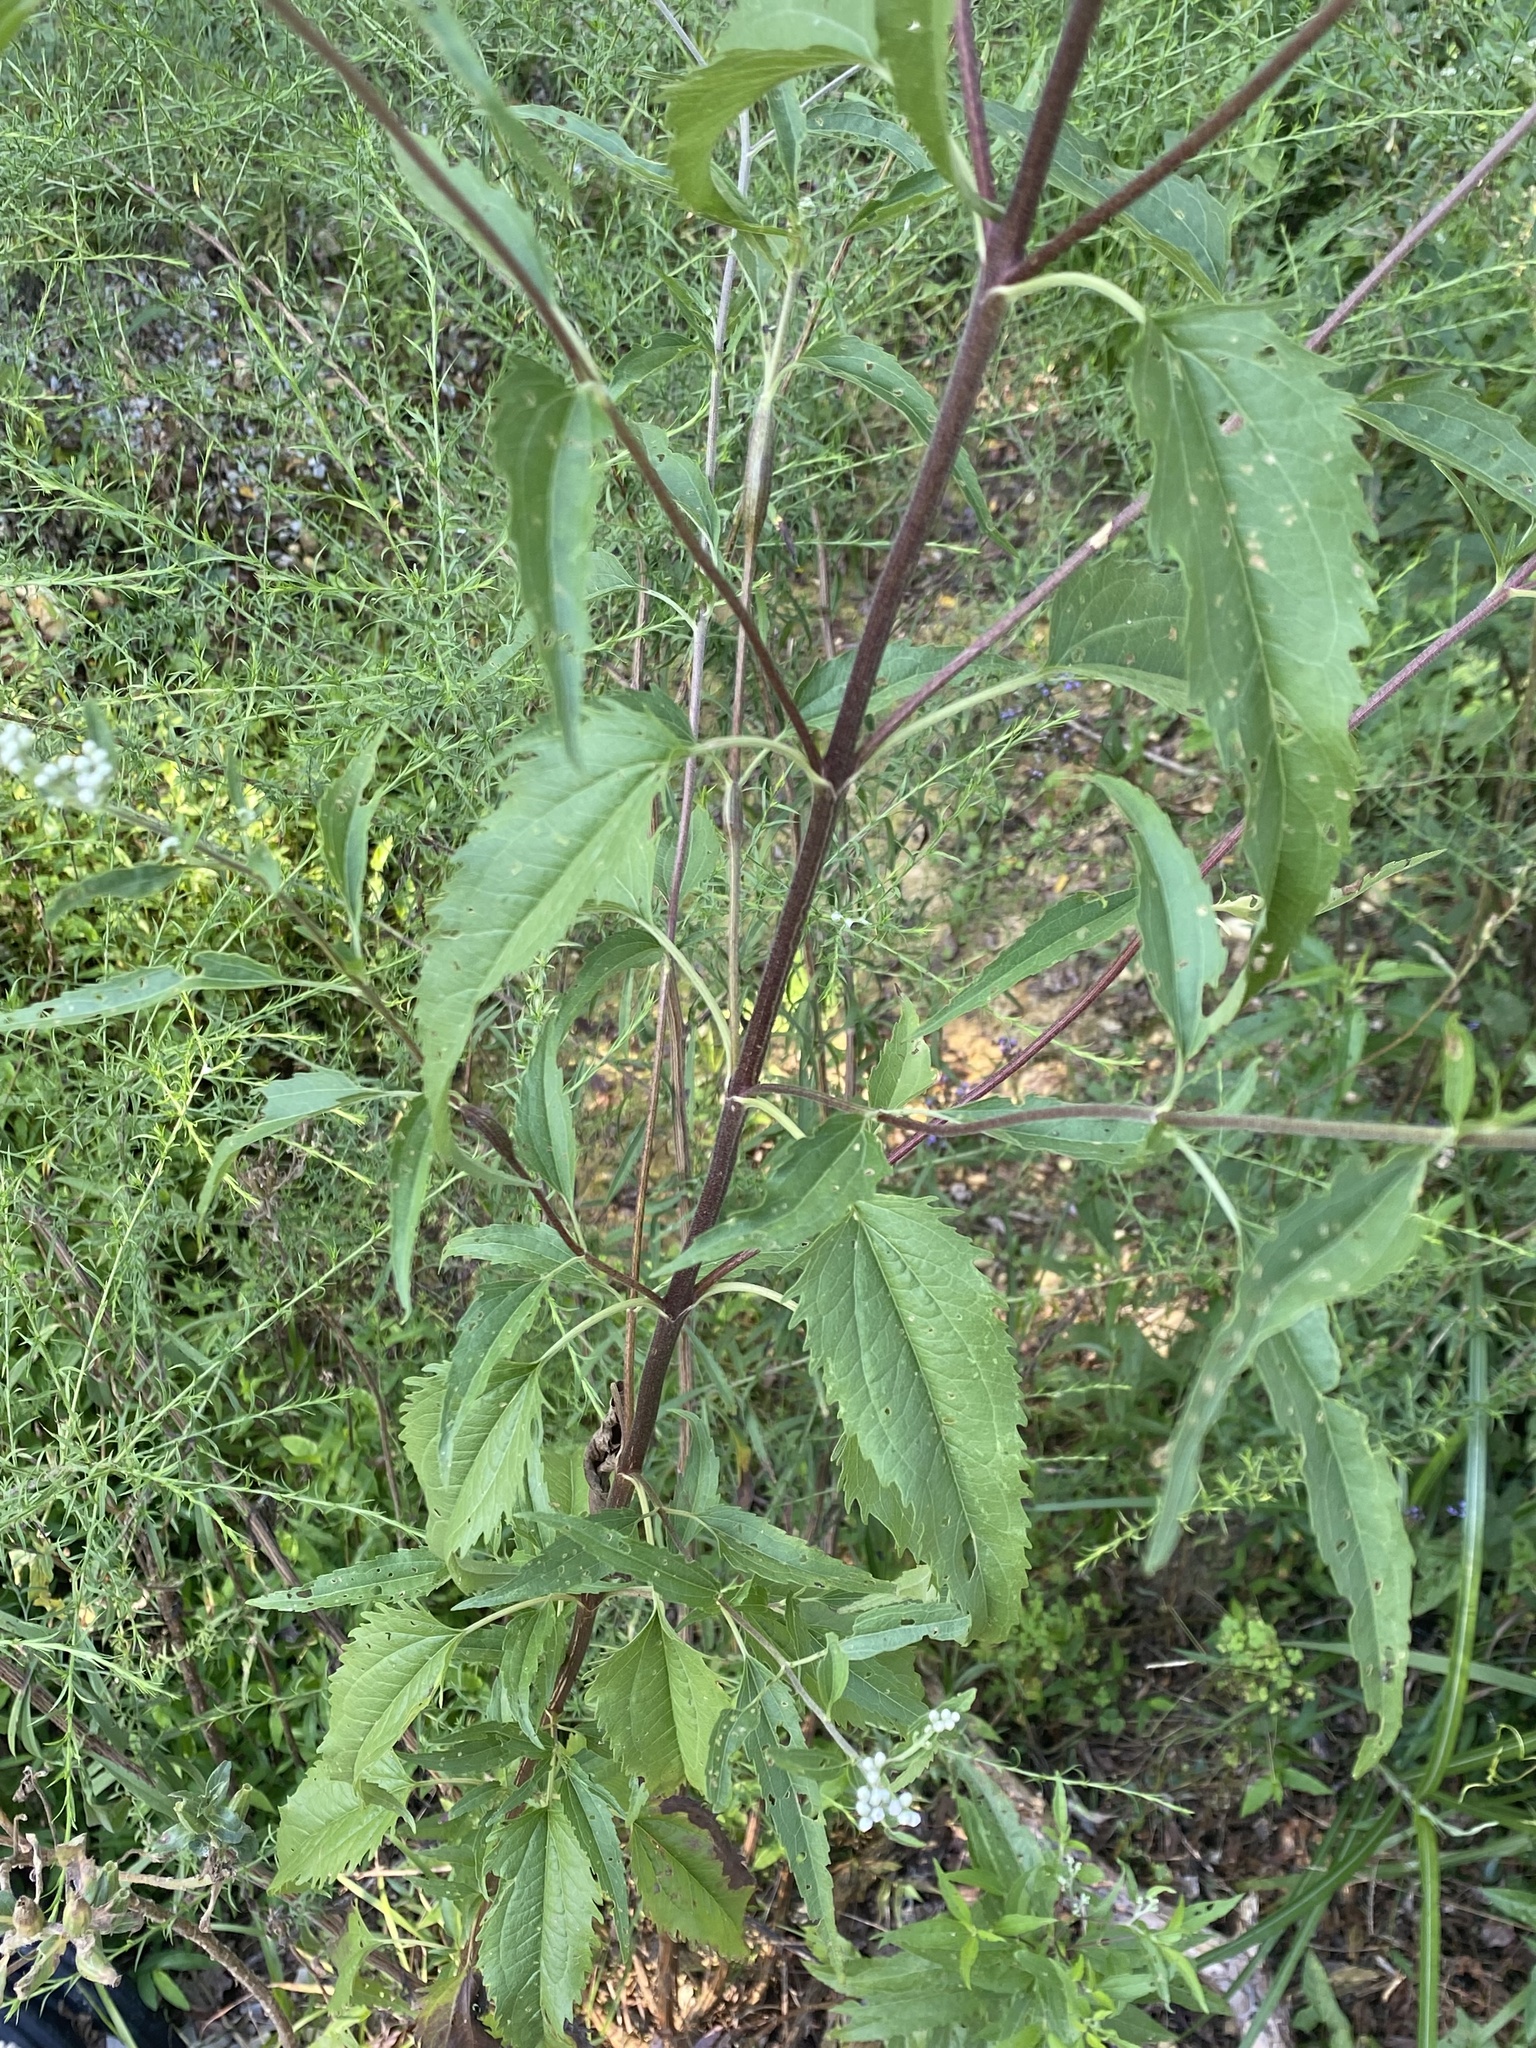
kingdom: Plantae
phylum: Tracheophyta
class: Magnoliopsida
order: Asterales
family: Asteraceae
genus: Eupatorium
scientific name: Eupatorium serotinum
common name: Late boneset
